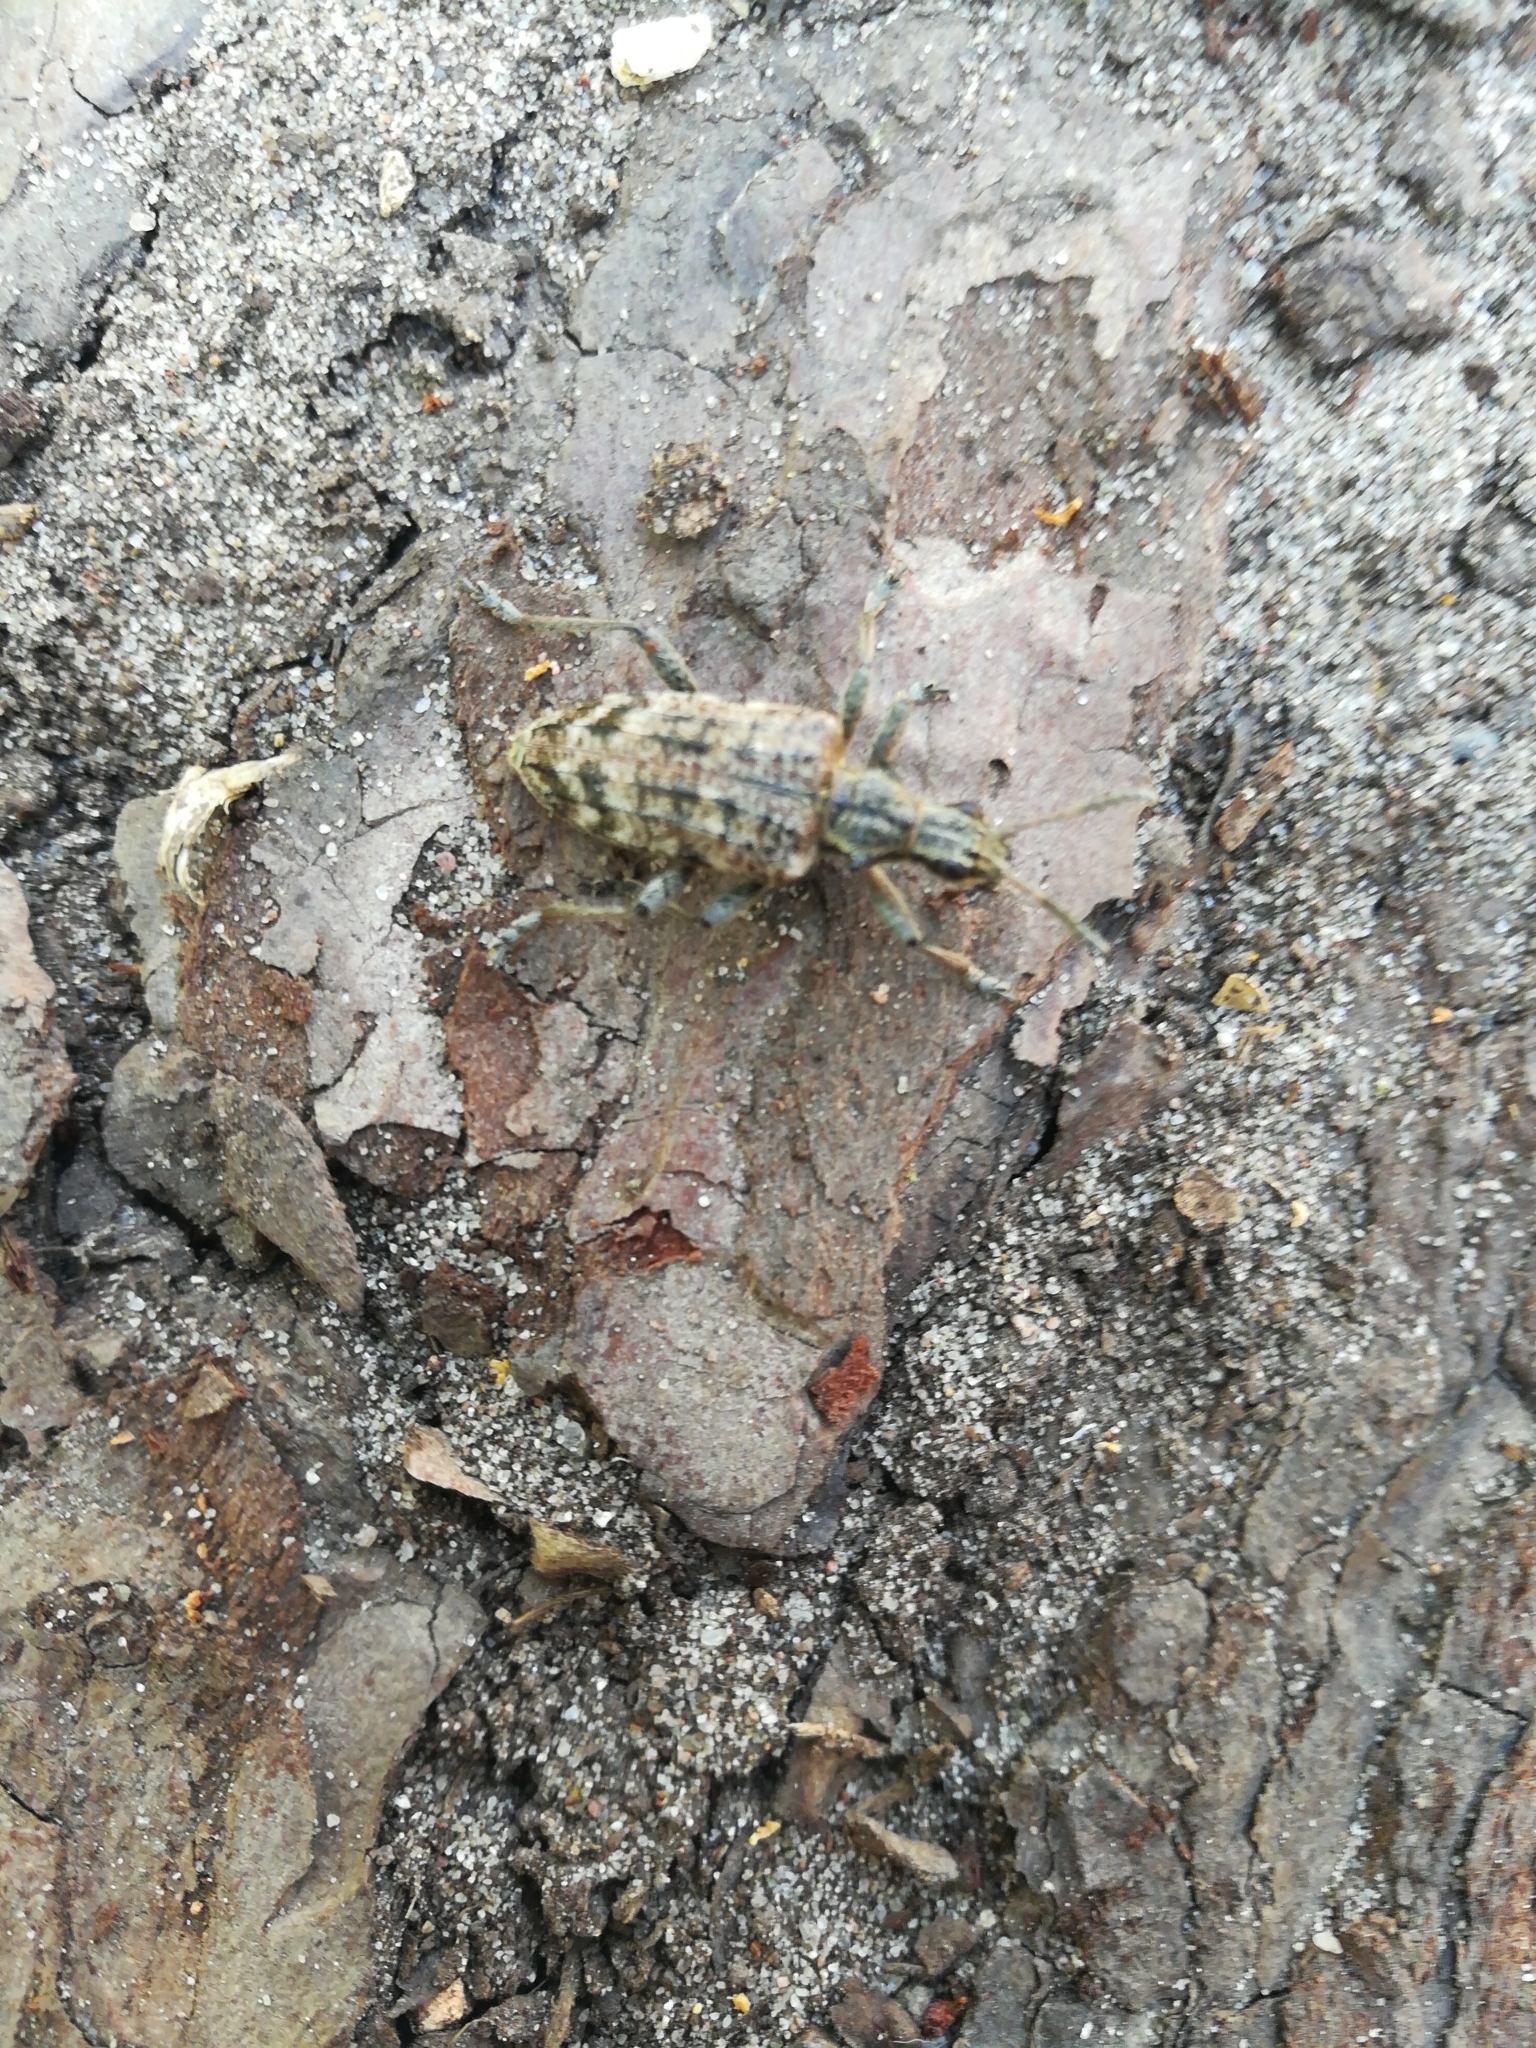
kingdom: Animalia
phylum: Arthropoda
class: Insecta
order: Coleoptera
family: Cerambycidae
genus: Rhagium
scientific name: Rhagium inquisitor
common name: Ribbed pine borer
